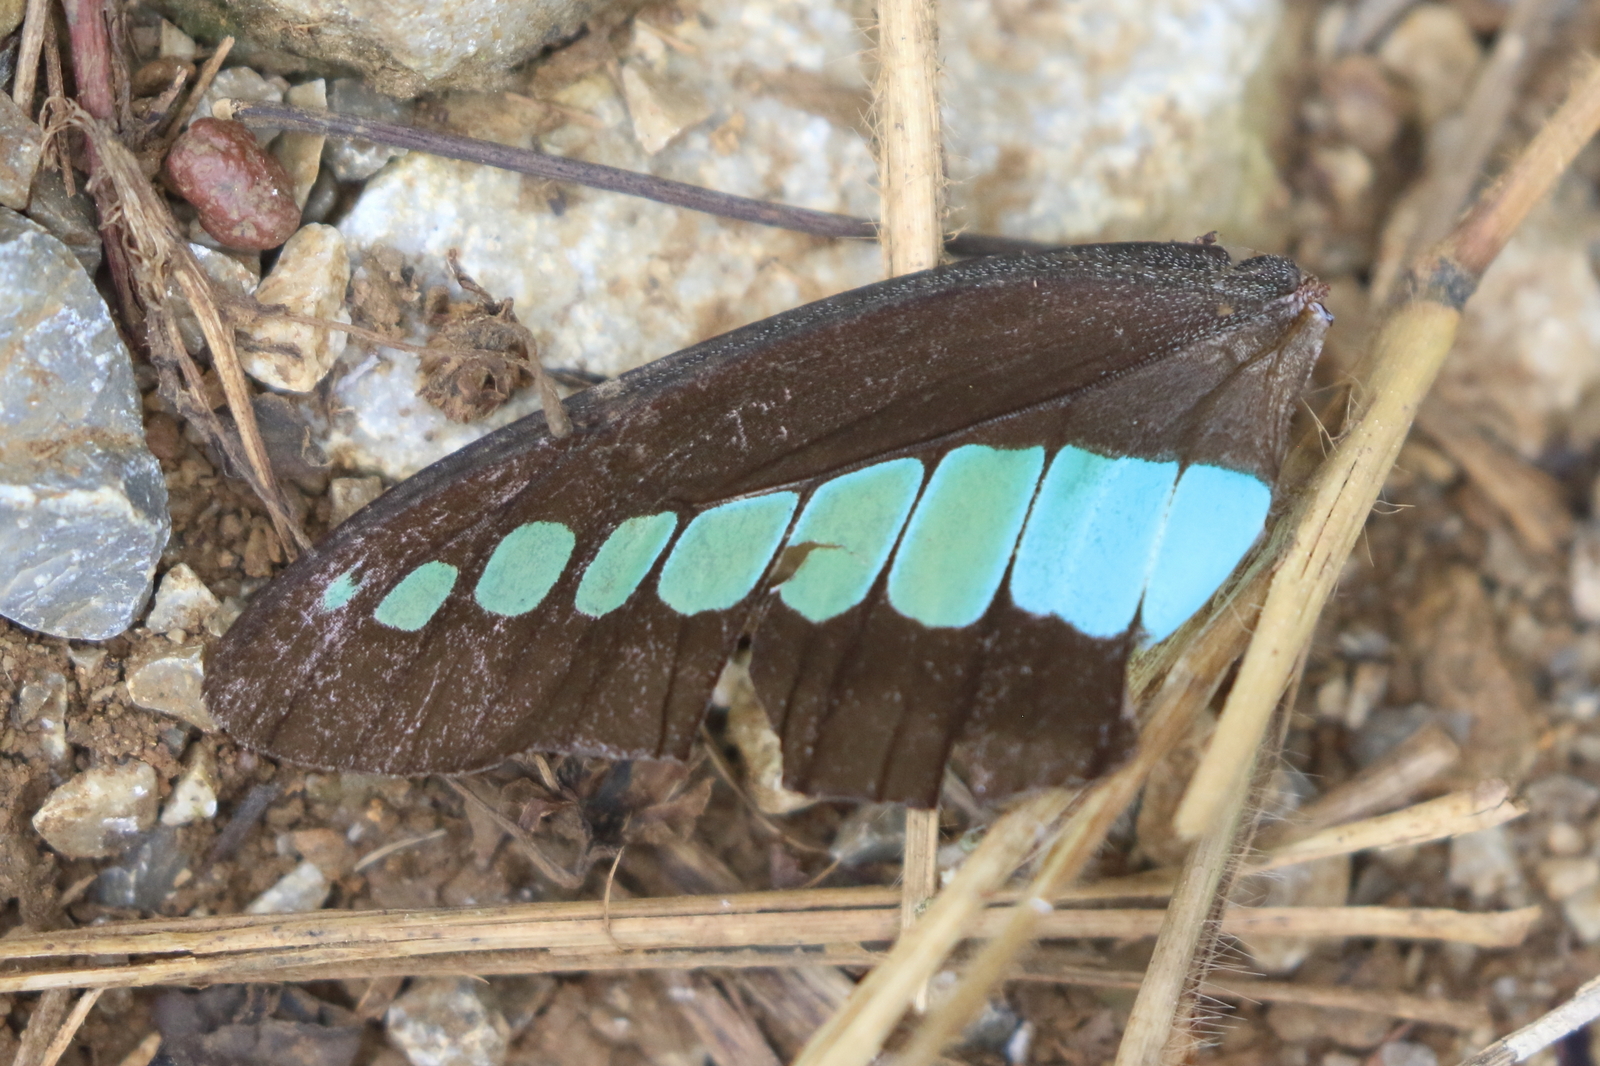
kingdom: Fungi
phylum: Ascomycota
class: Sordariomycetes
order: Microascales
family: Microascaceae
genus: Graphium
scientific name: Graphium sarpedon
